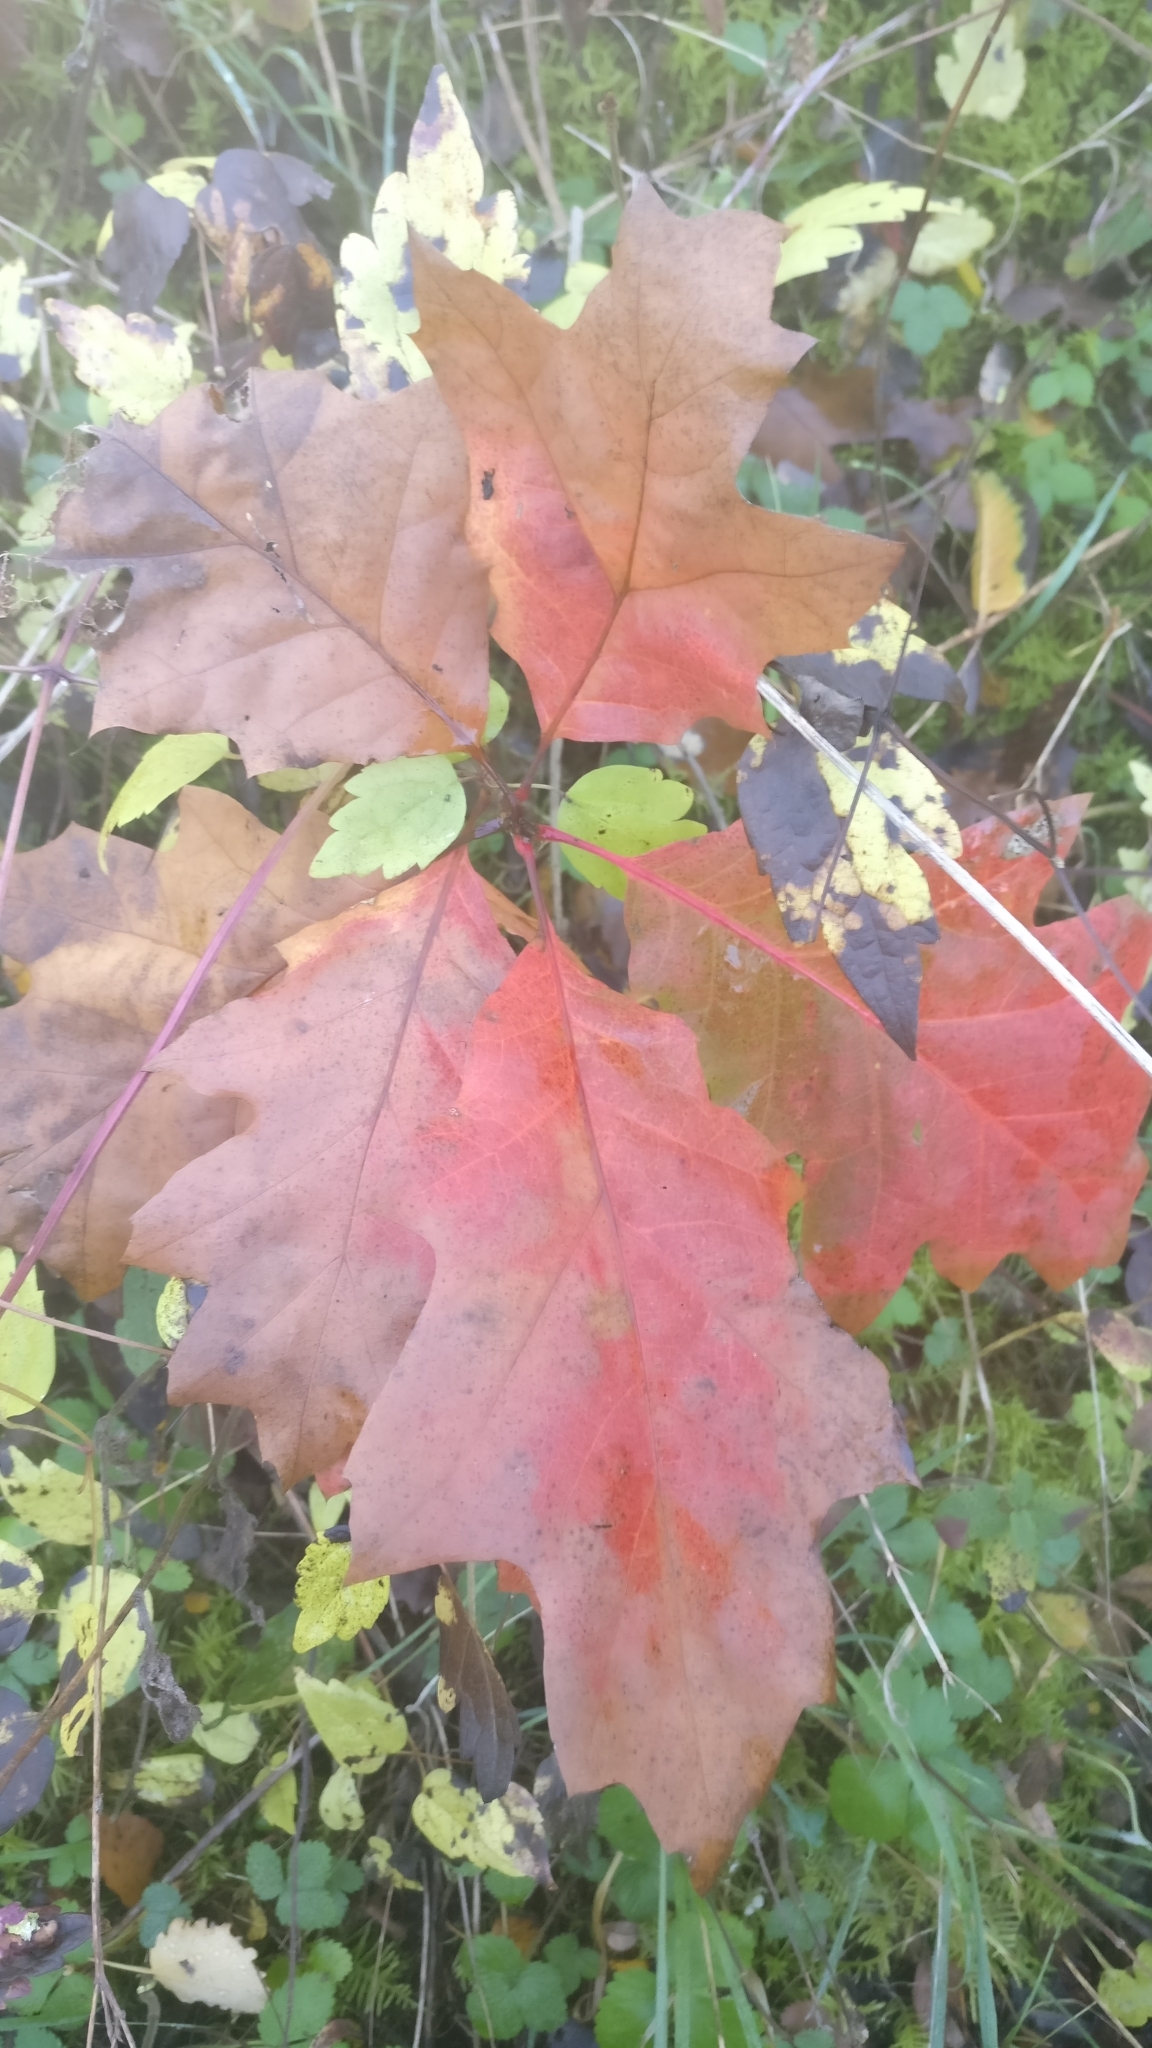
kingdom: Plantae
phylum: Tracheophyta
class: Magnoliopsida
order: Fagales
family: Fagaceae
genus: Quercus
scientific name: Quercus rubra
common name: Red oak
